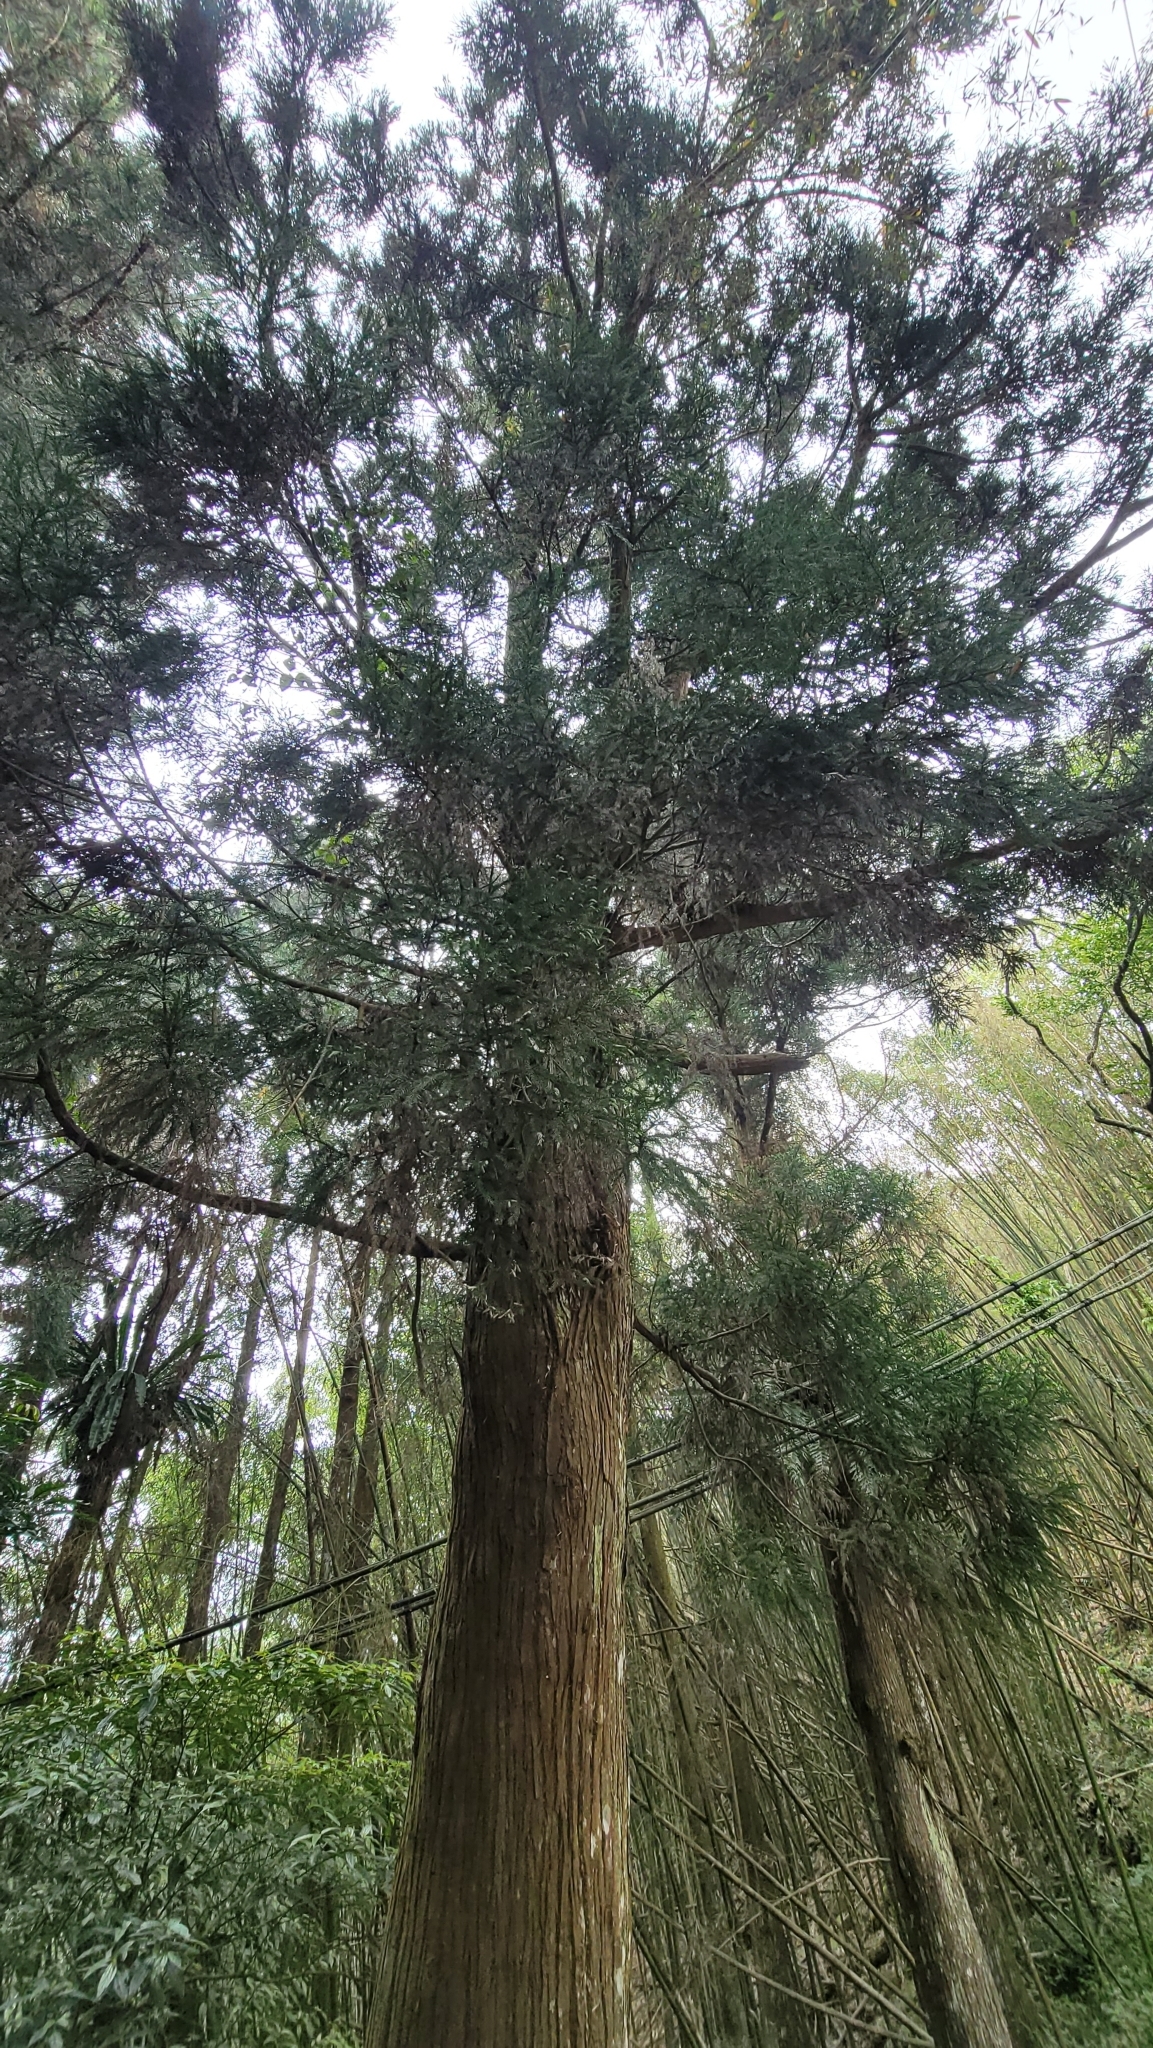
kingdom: Plantae
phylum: Tracheophyta
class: Pinopsida
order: Pinales
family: Cupressaceae
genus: Cryptomeria
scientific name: Cryptomeria japonica
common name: Japanese cedar
